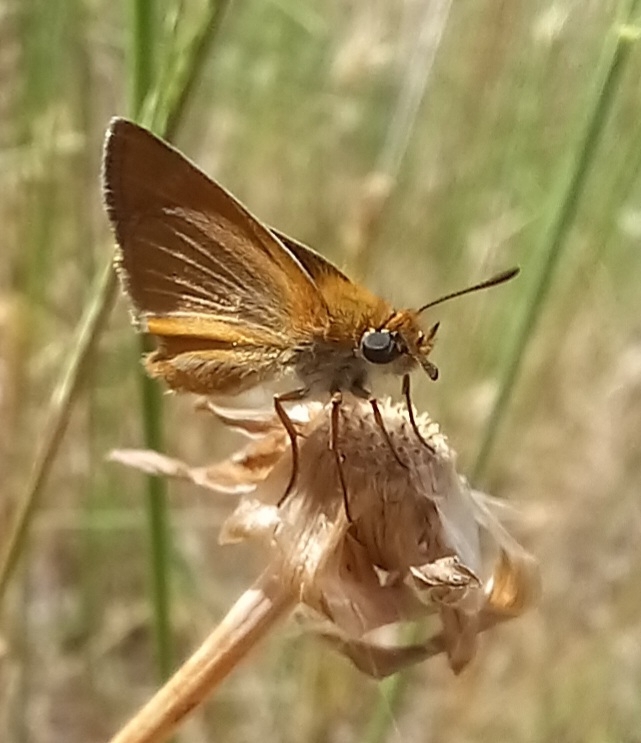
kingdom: Animalia
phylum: Arthropoda
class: Insecta
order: Lepidoptera
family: Hesperiidae
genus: Thymelicus
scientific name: Thymelicus acteon
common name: Lulworth skipper
